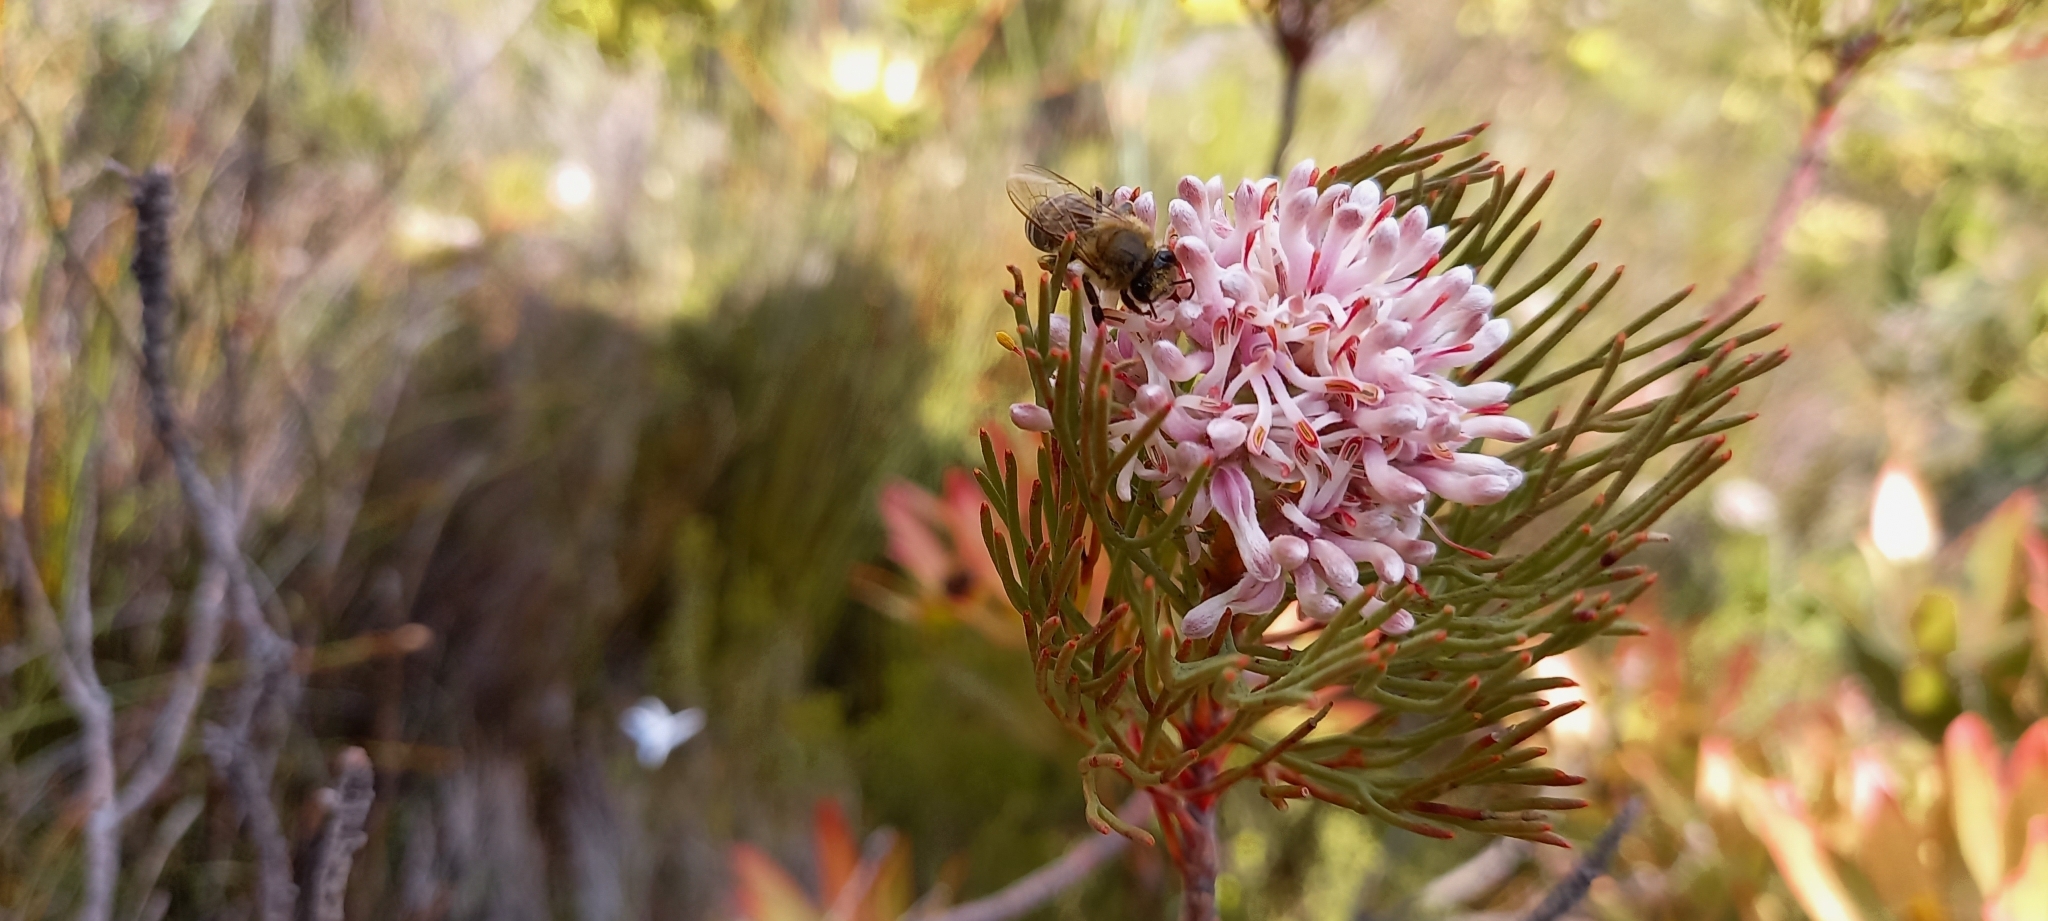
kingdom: Animalia
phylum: Arthropoda
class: Insecta
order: Hymenoptera
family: Apidae
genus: Apis
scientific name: Apis mellifera
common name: Honey bee
